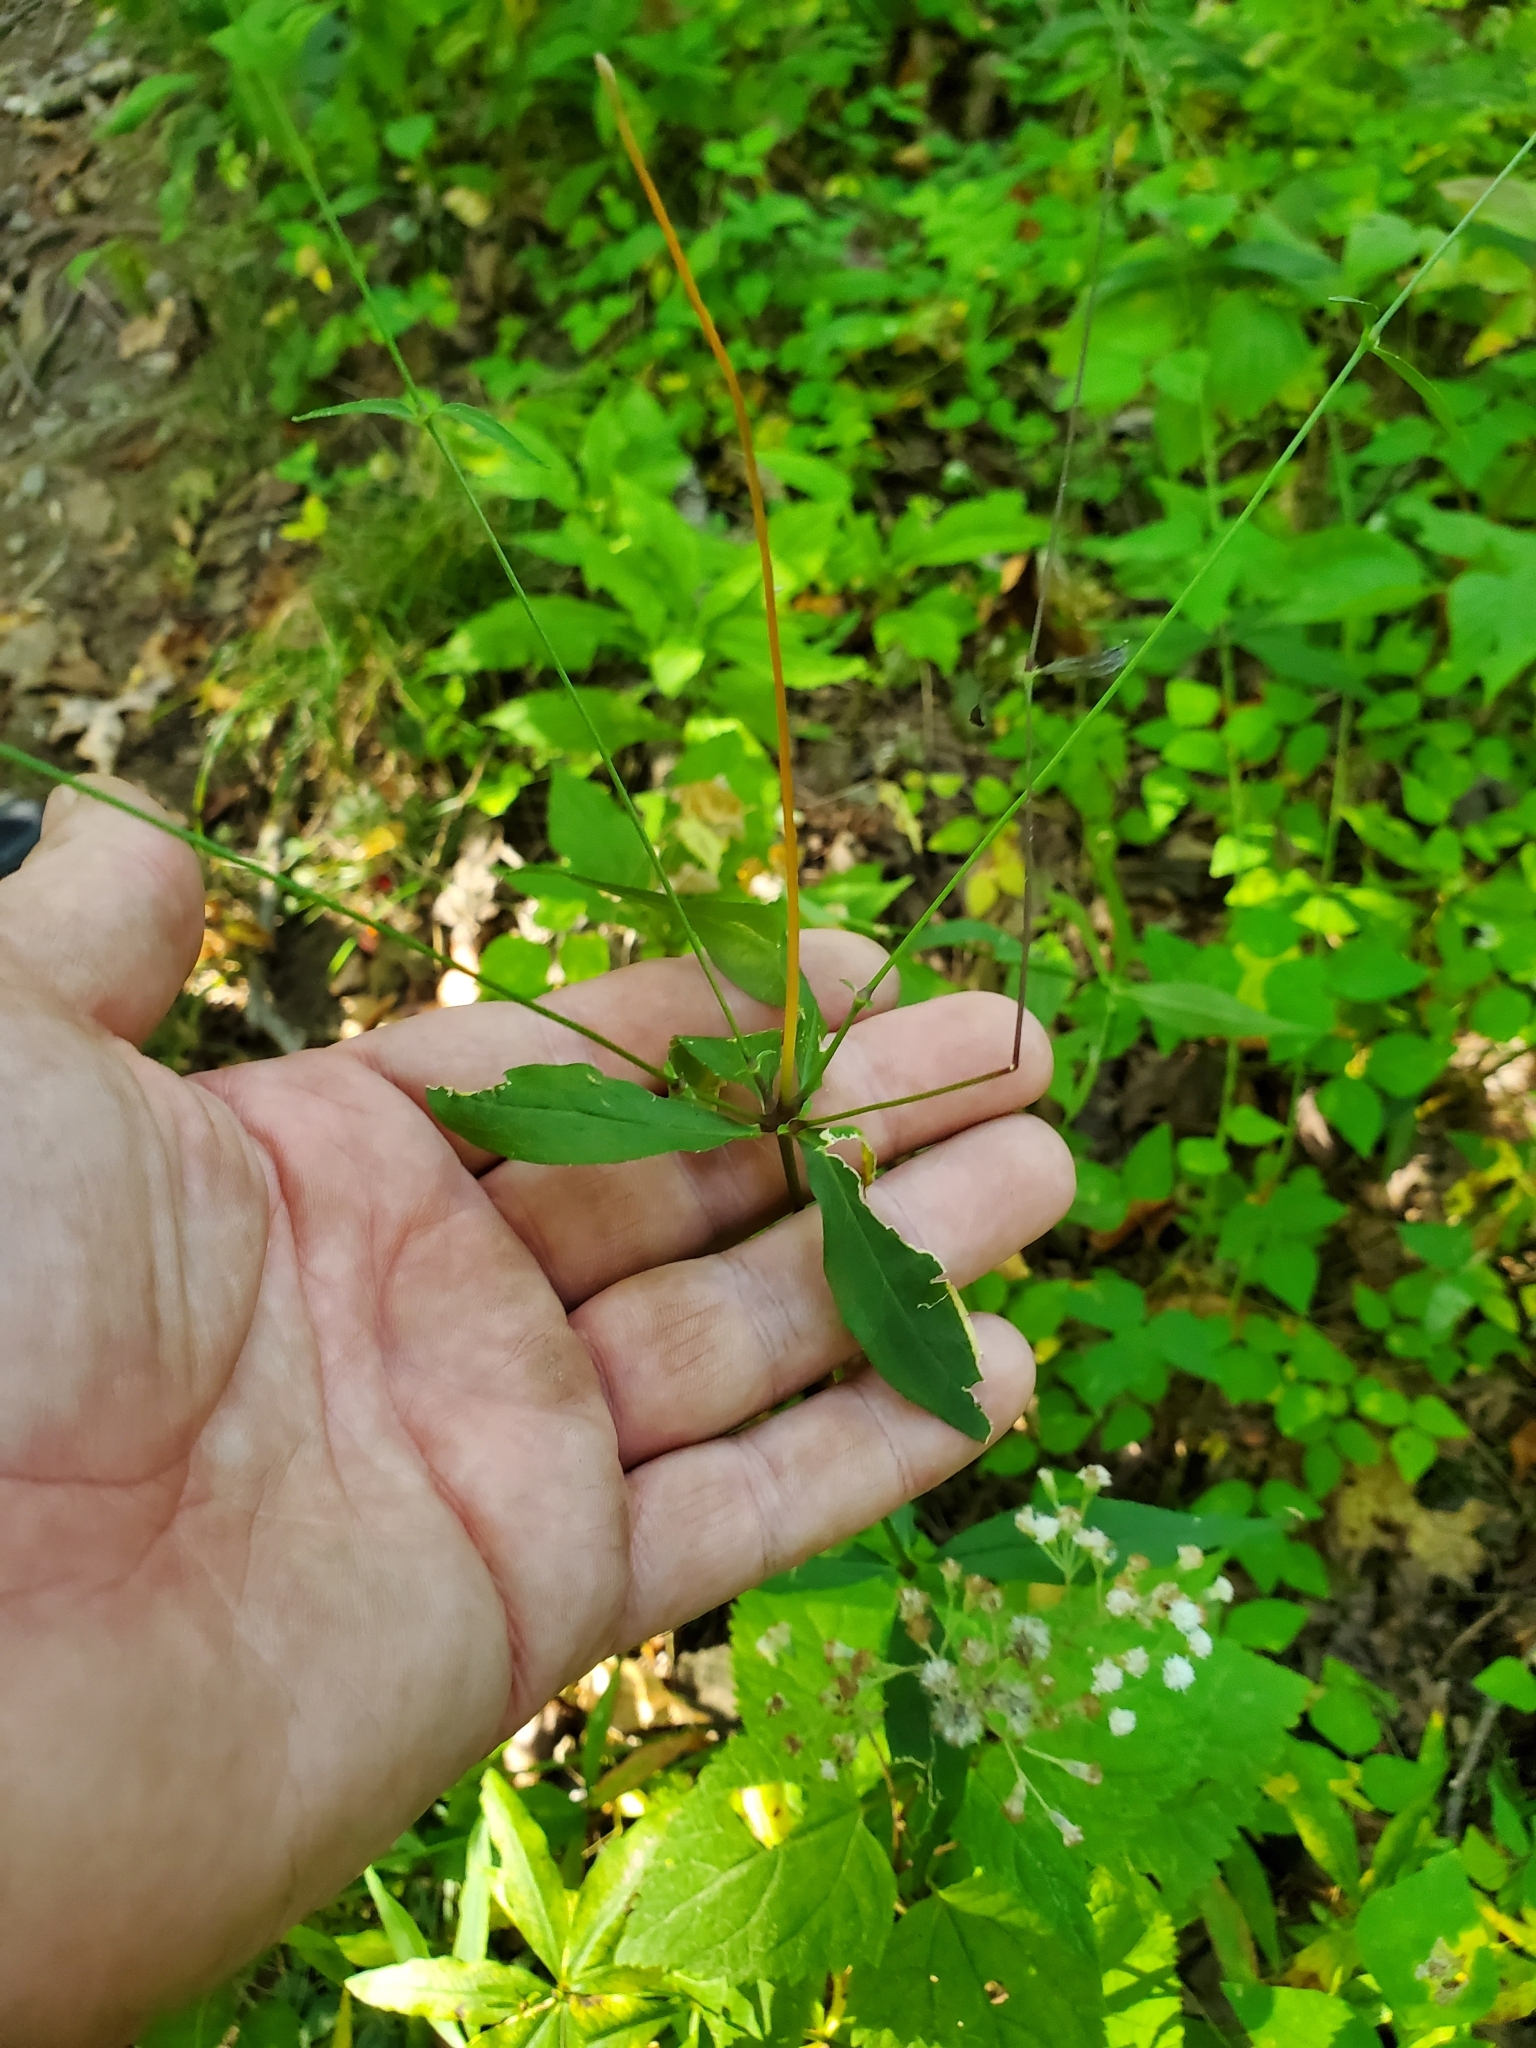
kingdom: Plantae
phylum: Tracheophyta
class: Magnoliopsida
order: Caryophyllales
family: Caryophyllaceae
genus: Silene
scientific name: Silene stellata
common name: Starry campion
